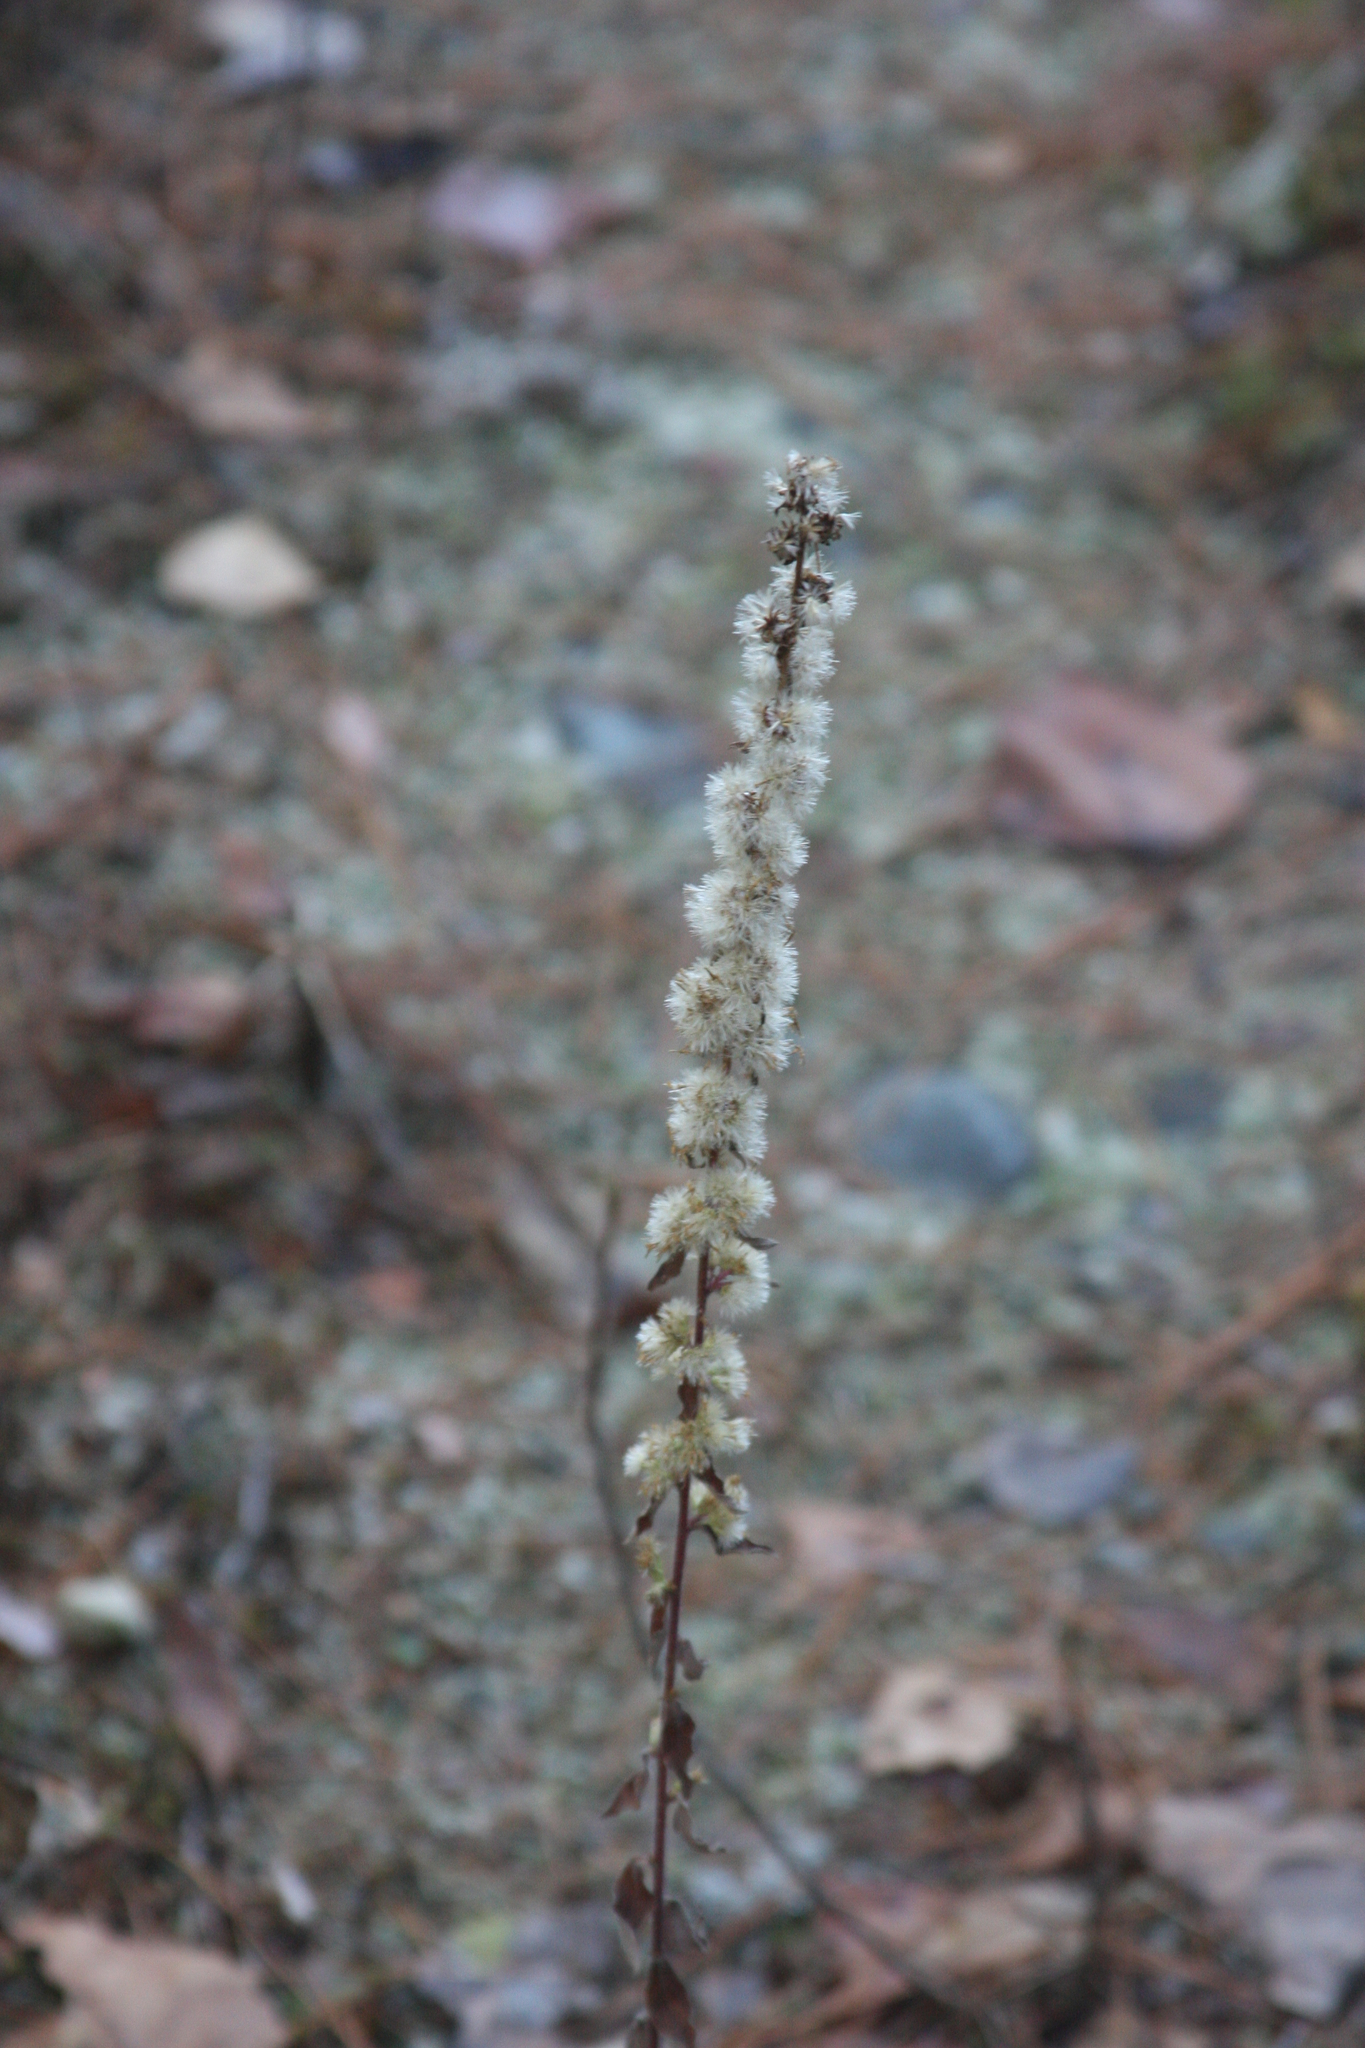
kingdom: Plantae
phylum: Tracheophyta
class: Magnoliopsida
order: Asterales
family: Asteraceae
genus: Solidago
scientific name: Solidago bicolor
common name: Silverrod
